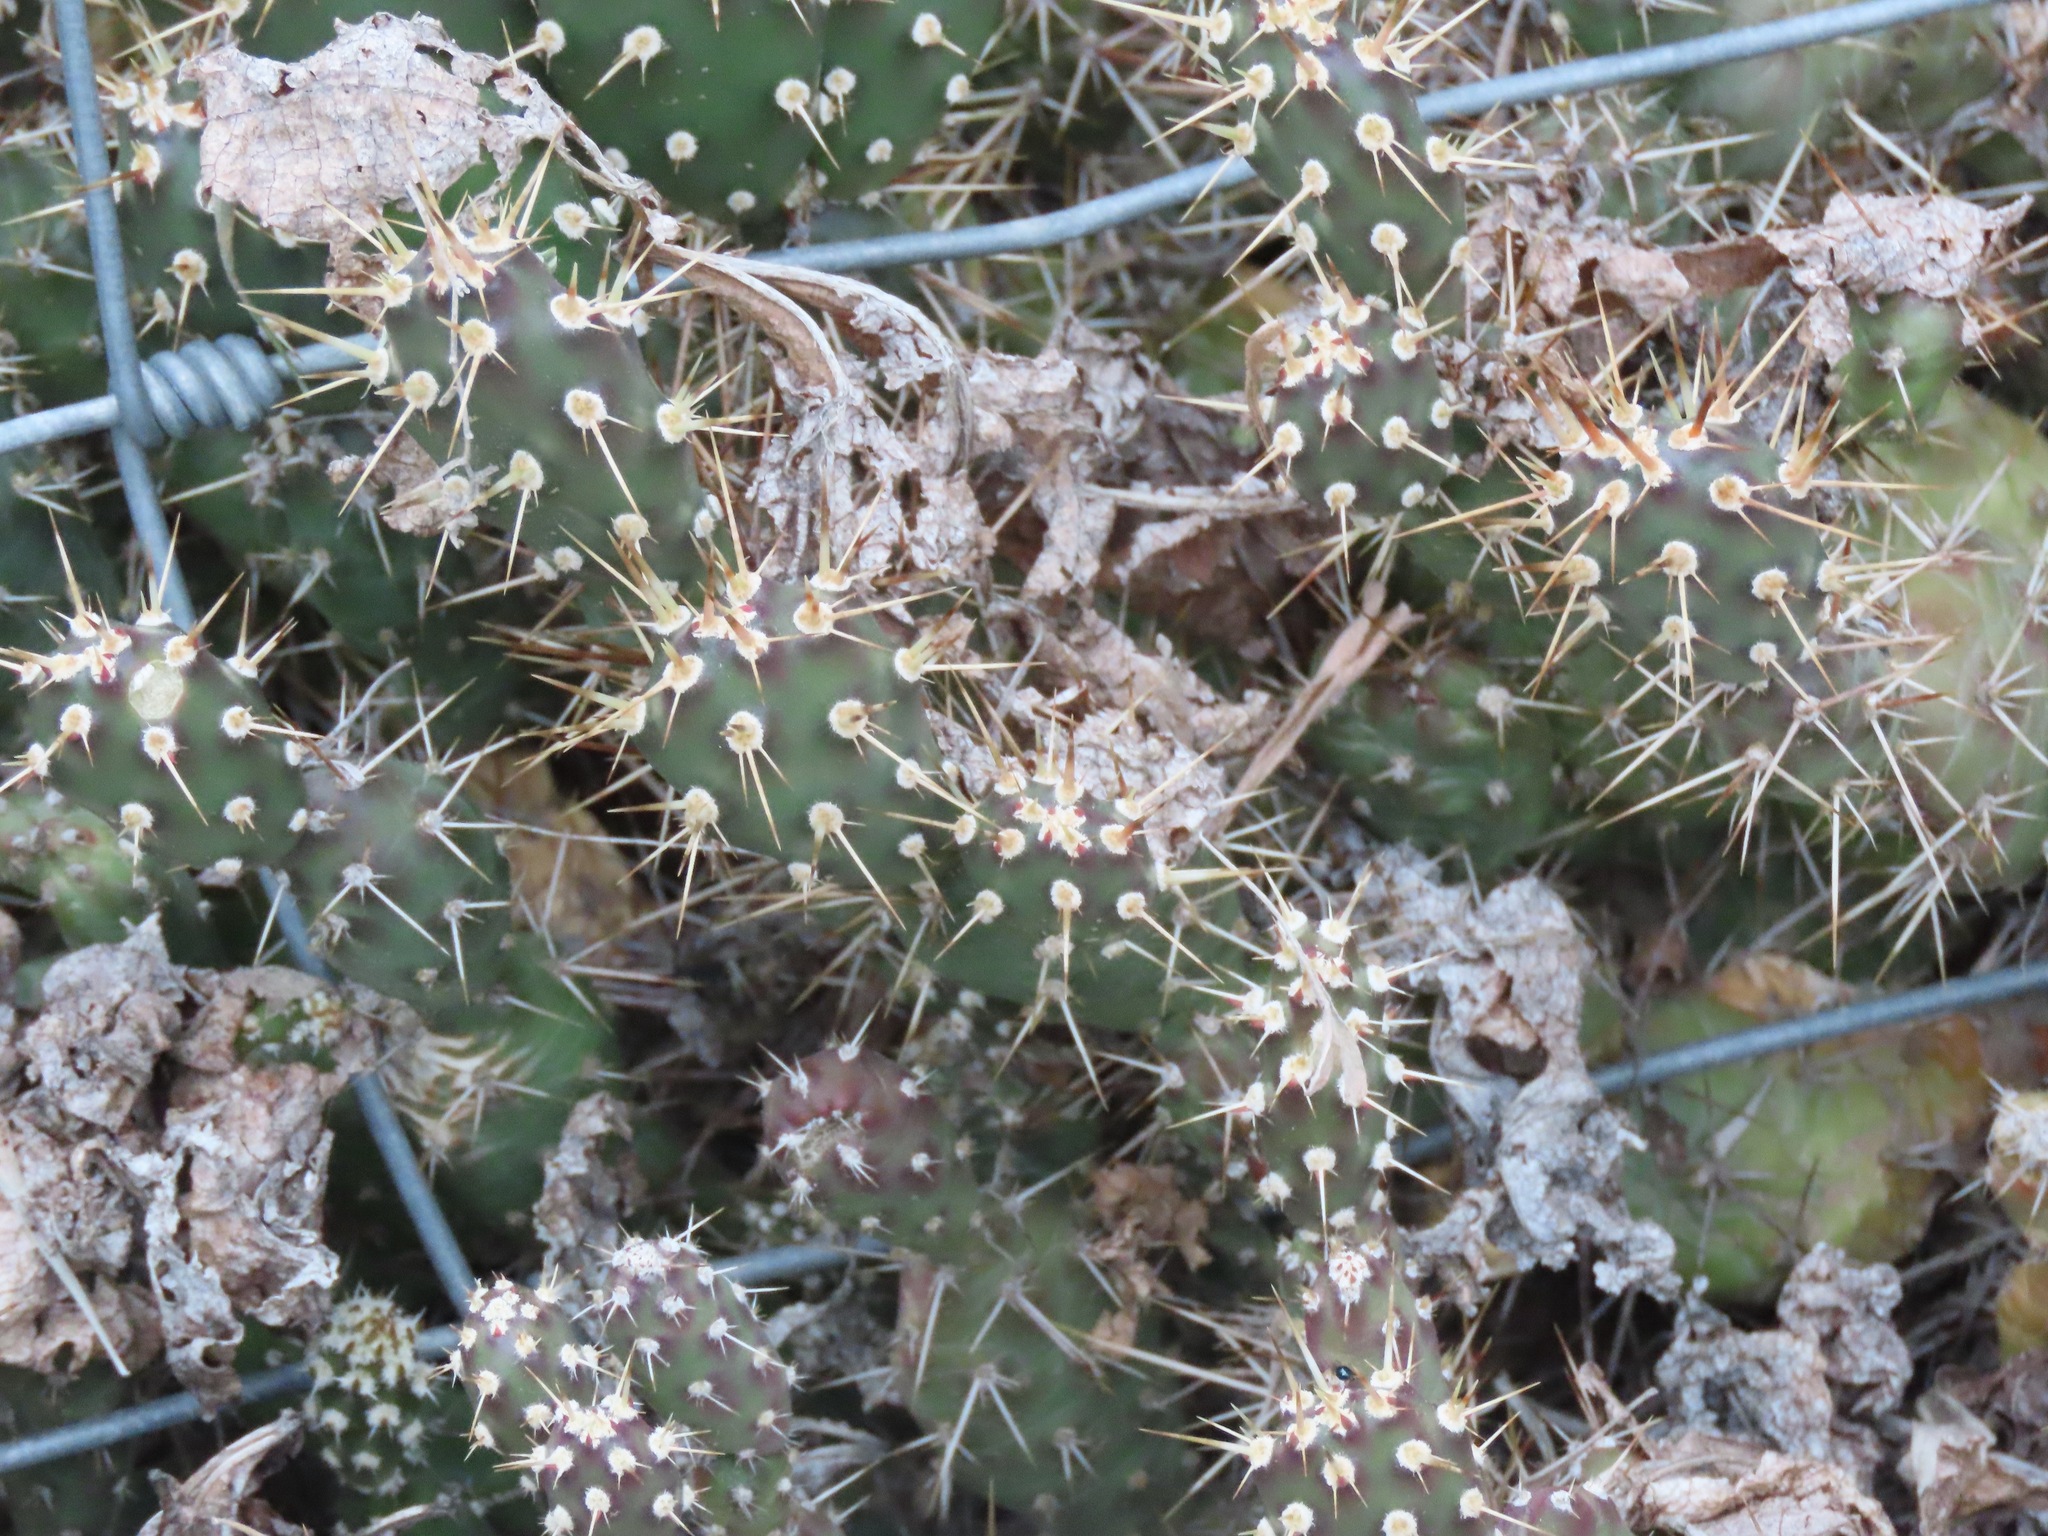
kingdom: Plantae
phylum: Tracheophyta
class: Magnoliopsida
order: Caryophyllales
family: Cactaceae
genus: Opuntia
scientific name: Opuntia fragilis
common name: Brittle cactus
